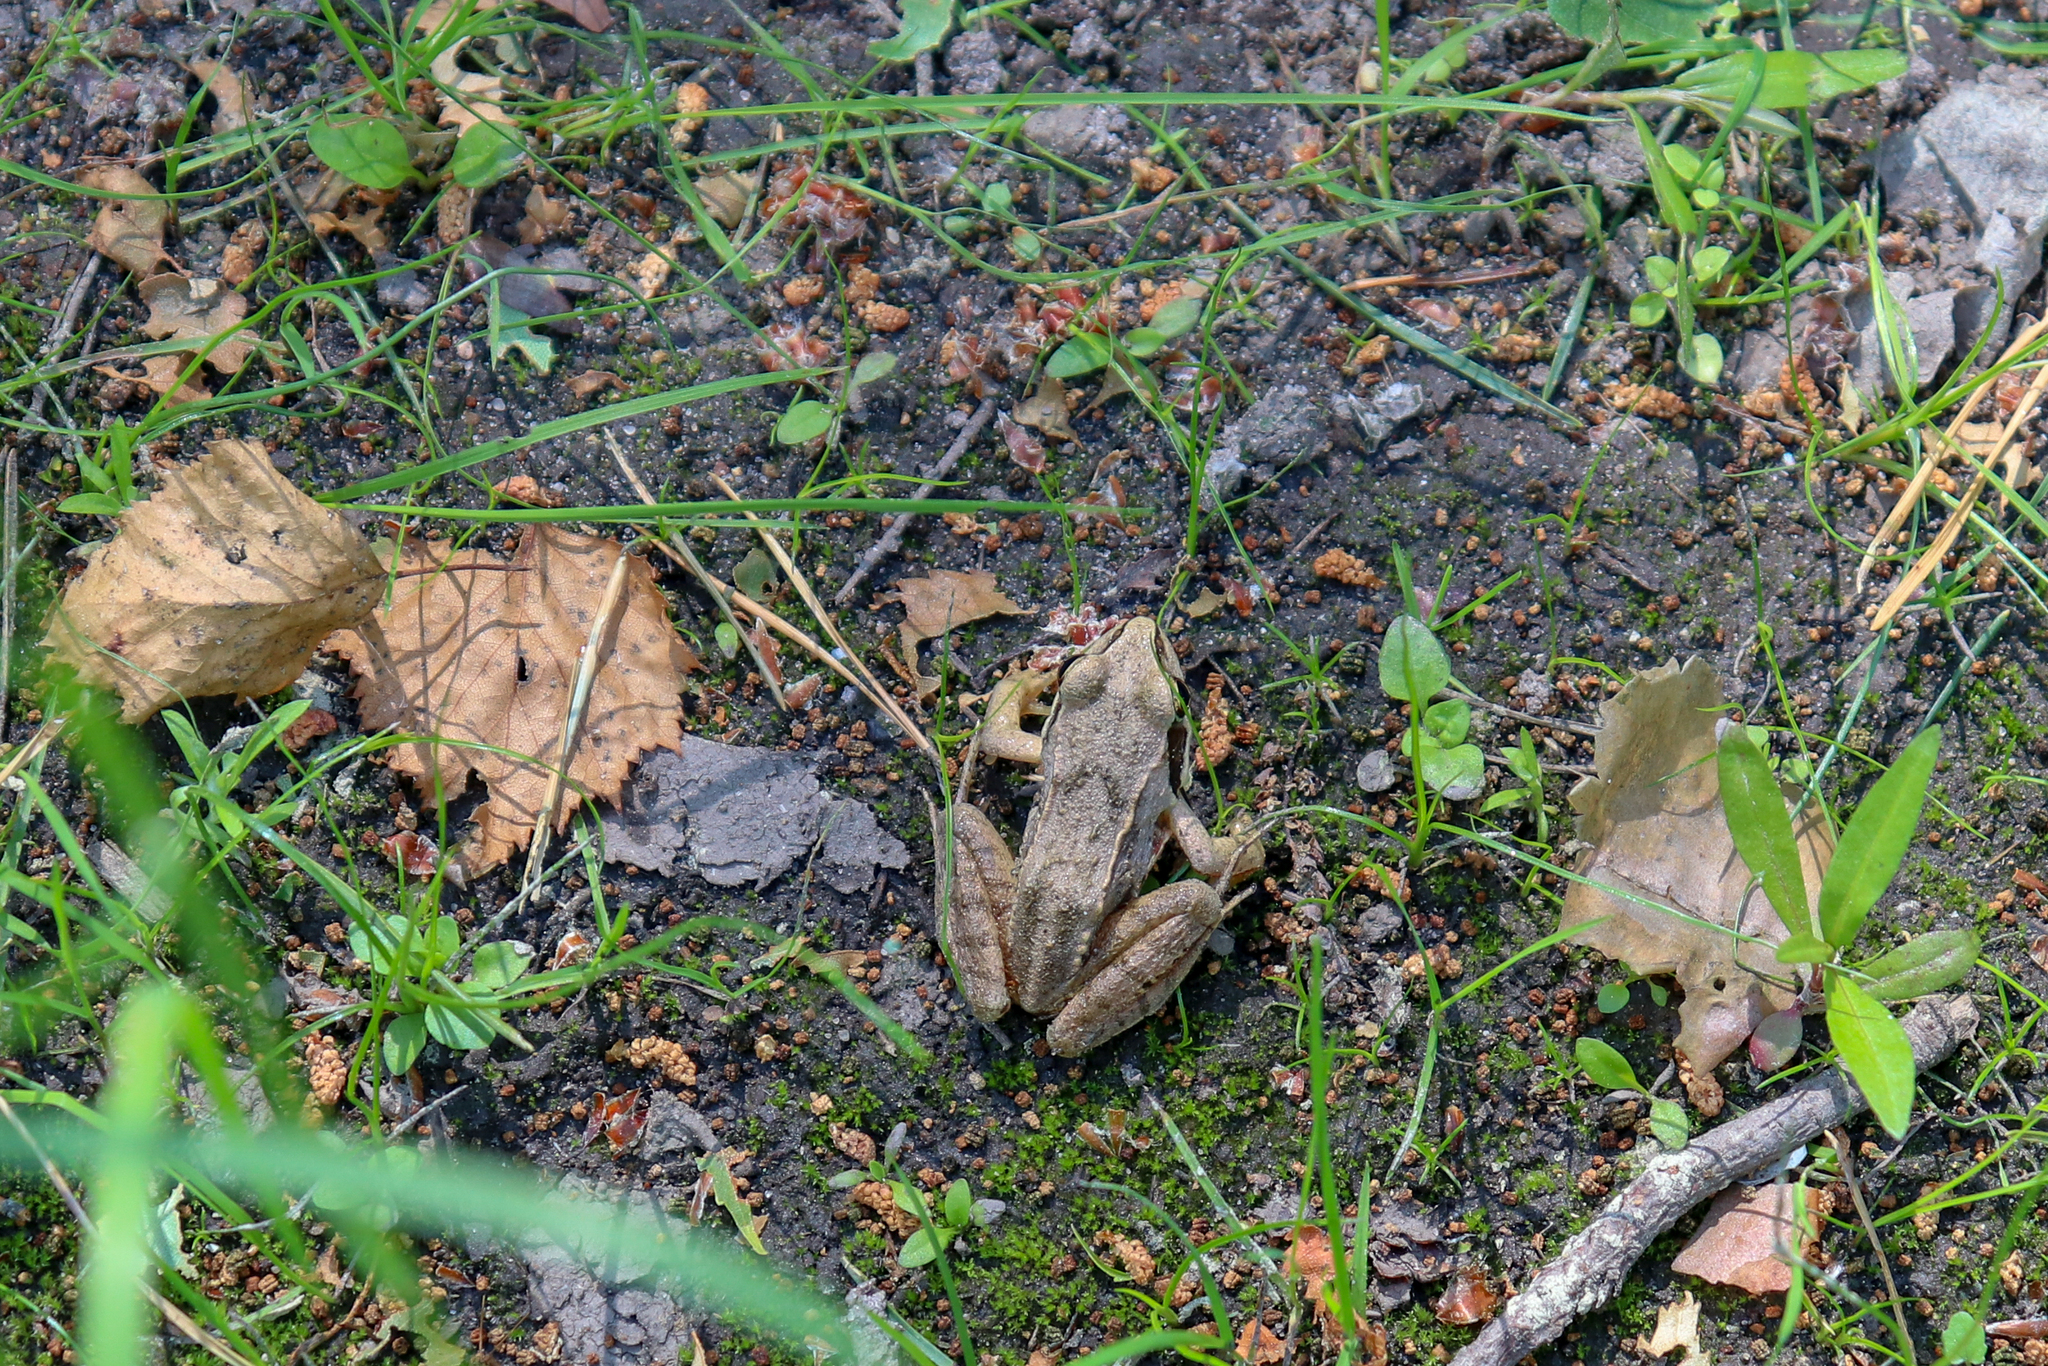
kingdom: Animalia
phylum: Chordata
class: Amphibia
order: Anura
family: Ranidae
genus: Rana
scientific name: Rana arvalis
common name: Moor frog
